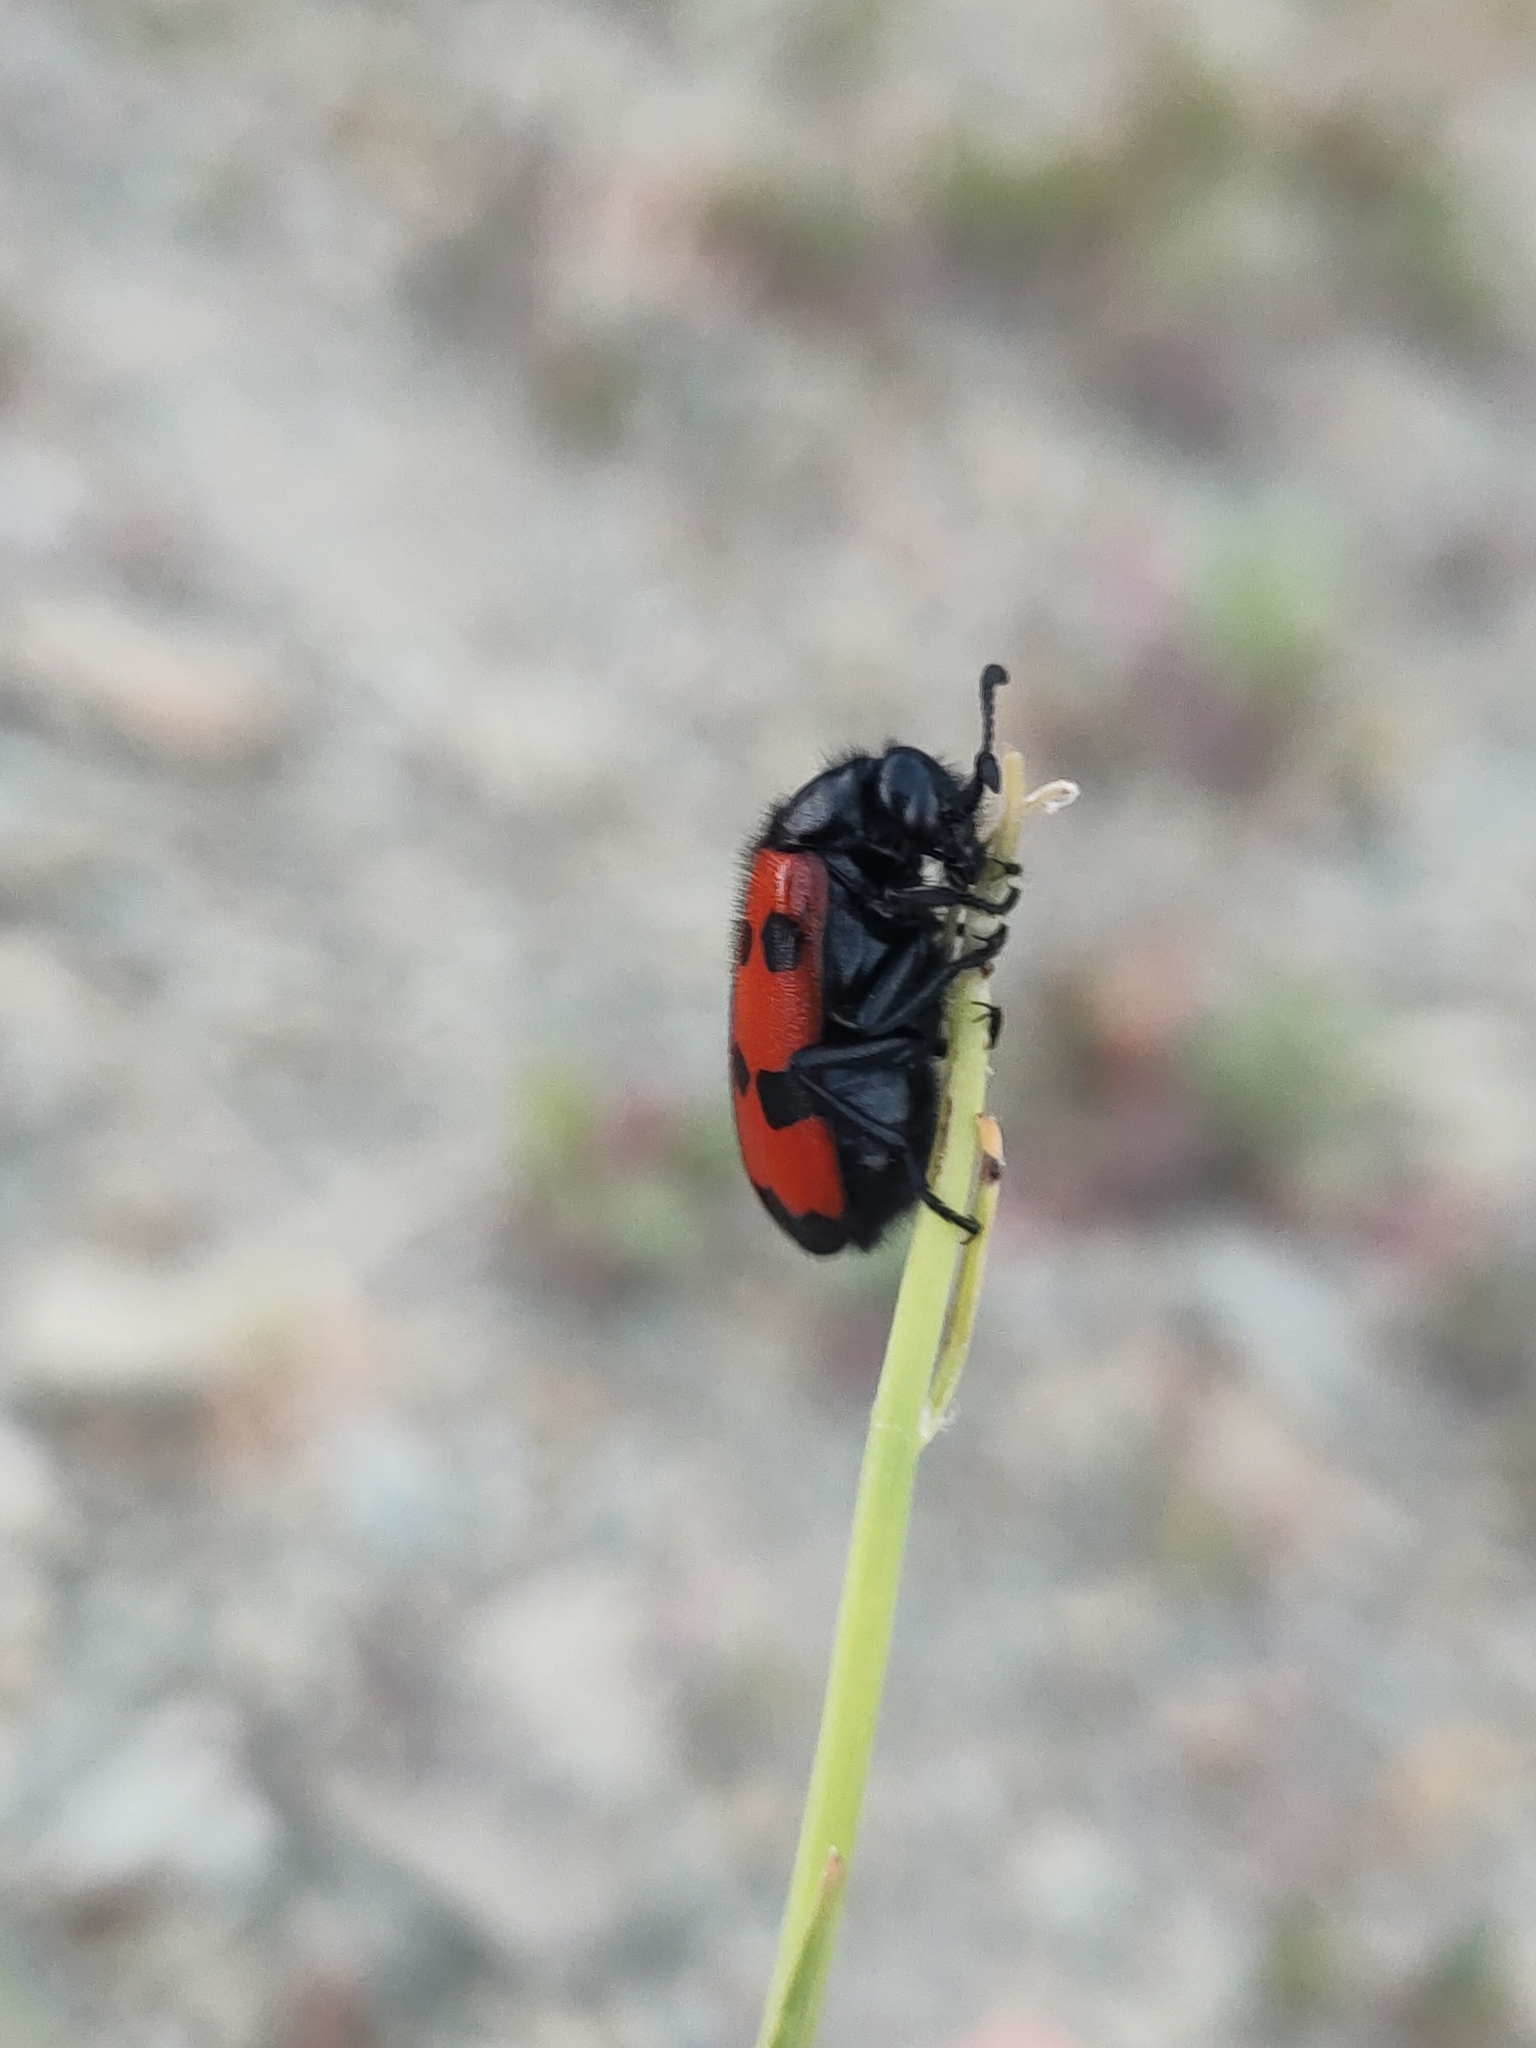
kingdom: Animalia
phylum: Arthropoda
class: Insecta
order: Coleoptera
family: Meloidae
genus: Mylabris
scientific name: Mylabris quadripunctata
